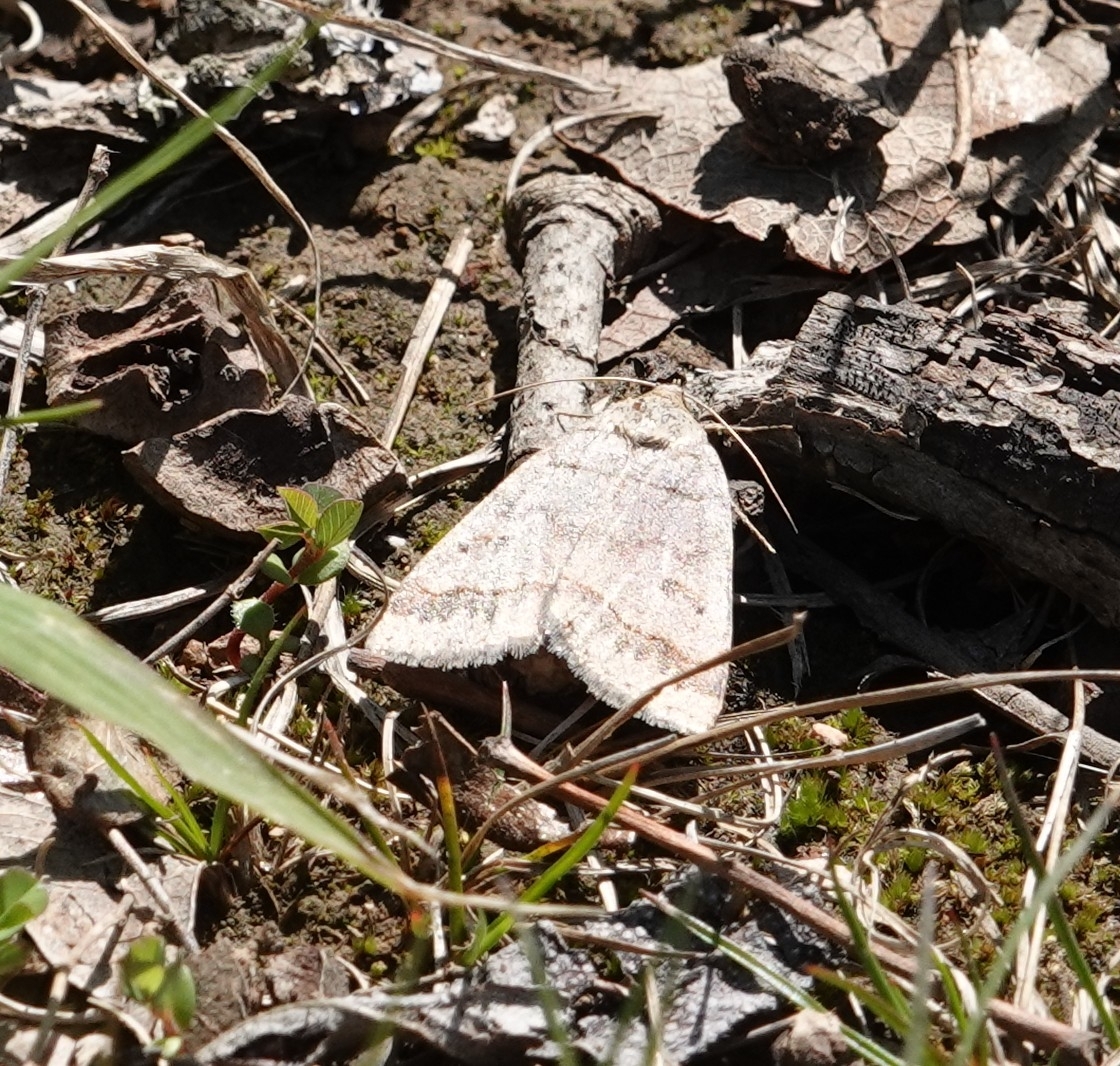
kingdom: Animalia
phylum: Arthropoda
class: Insecta
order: Lepidoptera
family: Erebidae
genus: Phoberia
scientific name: Phoberia atomaris
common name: Common oak moth
